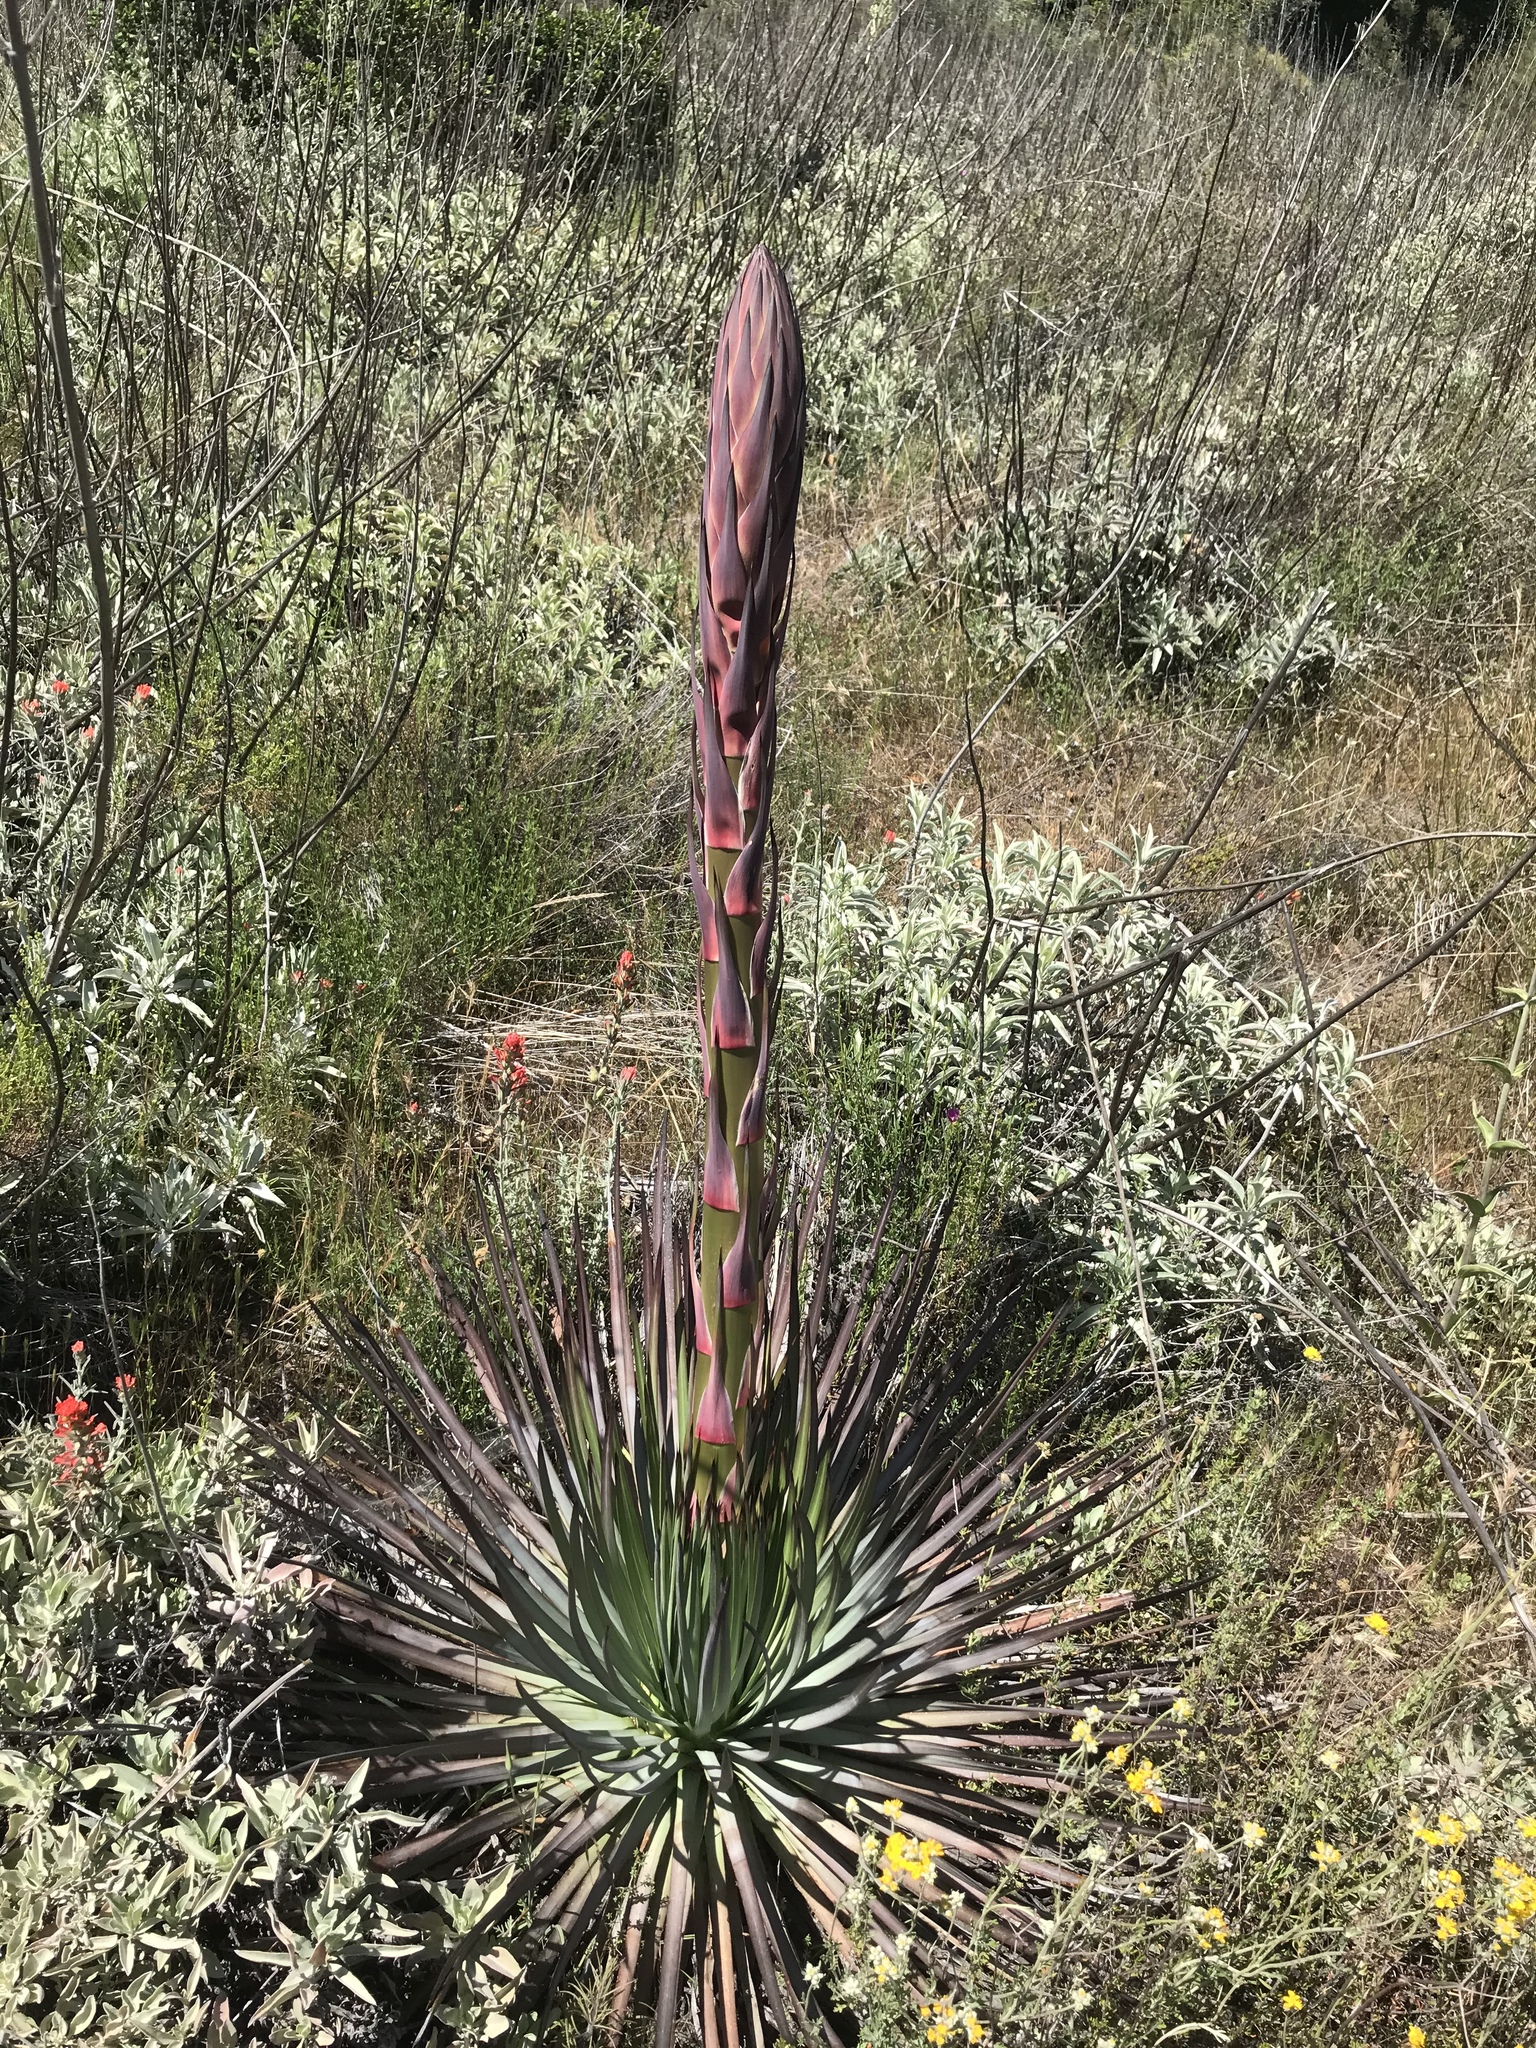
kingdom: Plantae
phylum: Tracheophyta
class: Liliopsida
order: Asparagales
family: Asparagaceae
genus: Hesperoyucca
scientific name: Hesperoyucca whipplei
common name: Our lord's-candle
